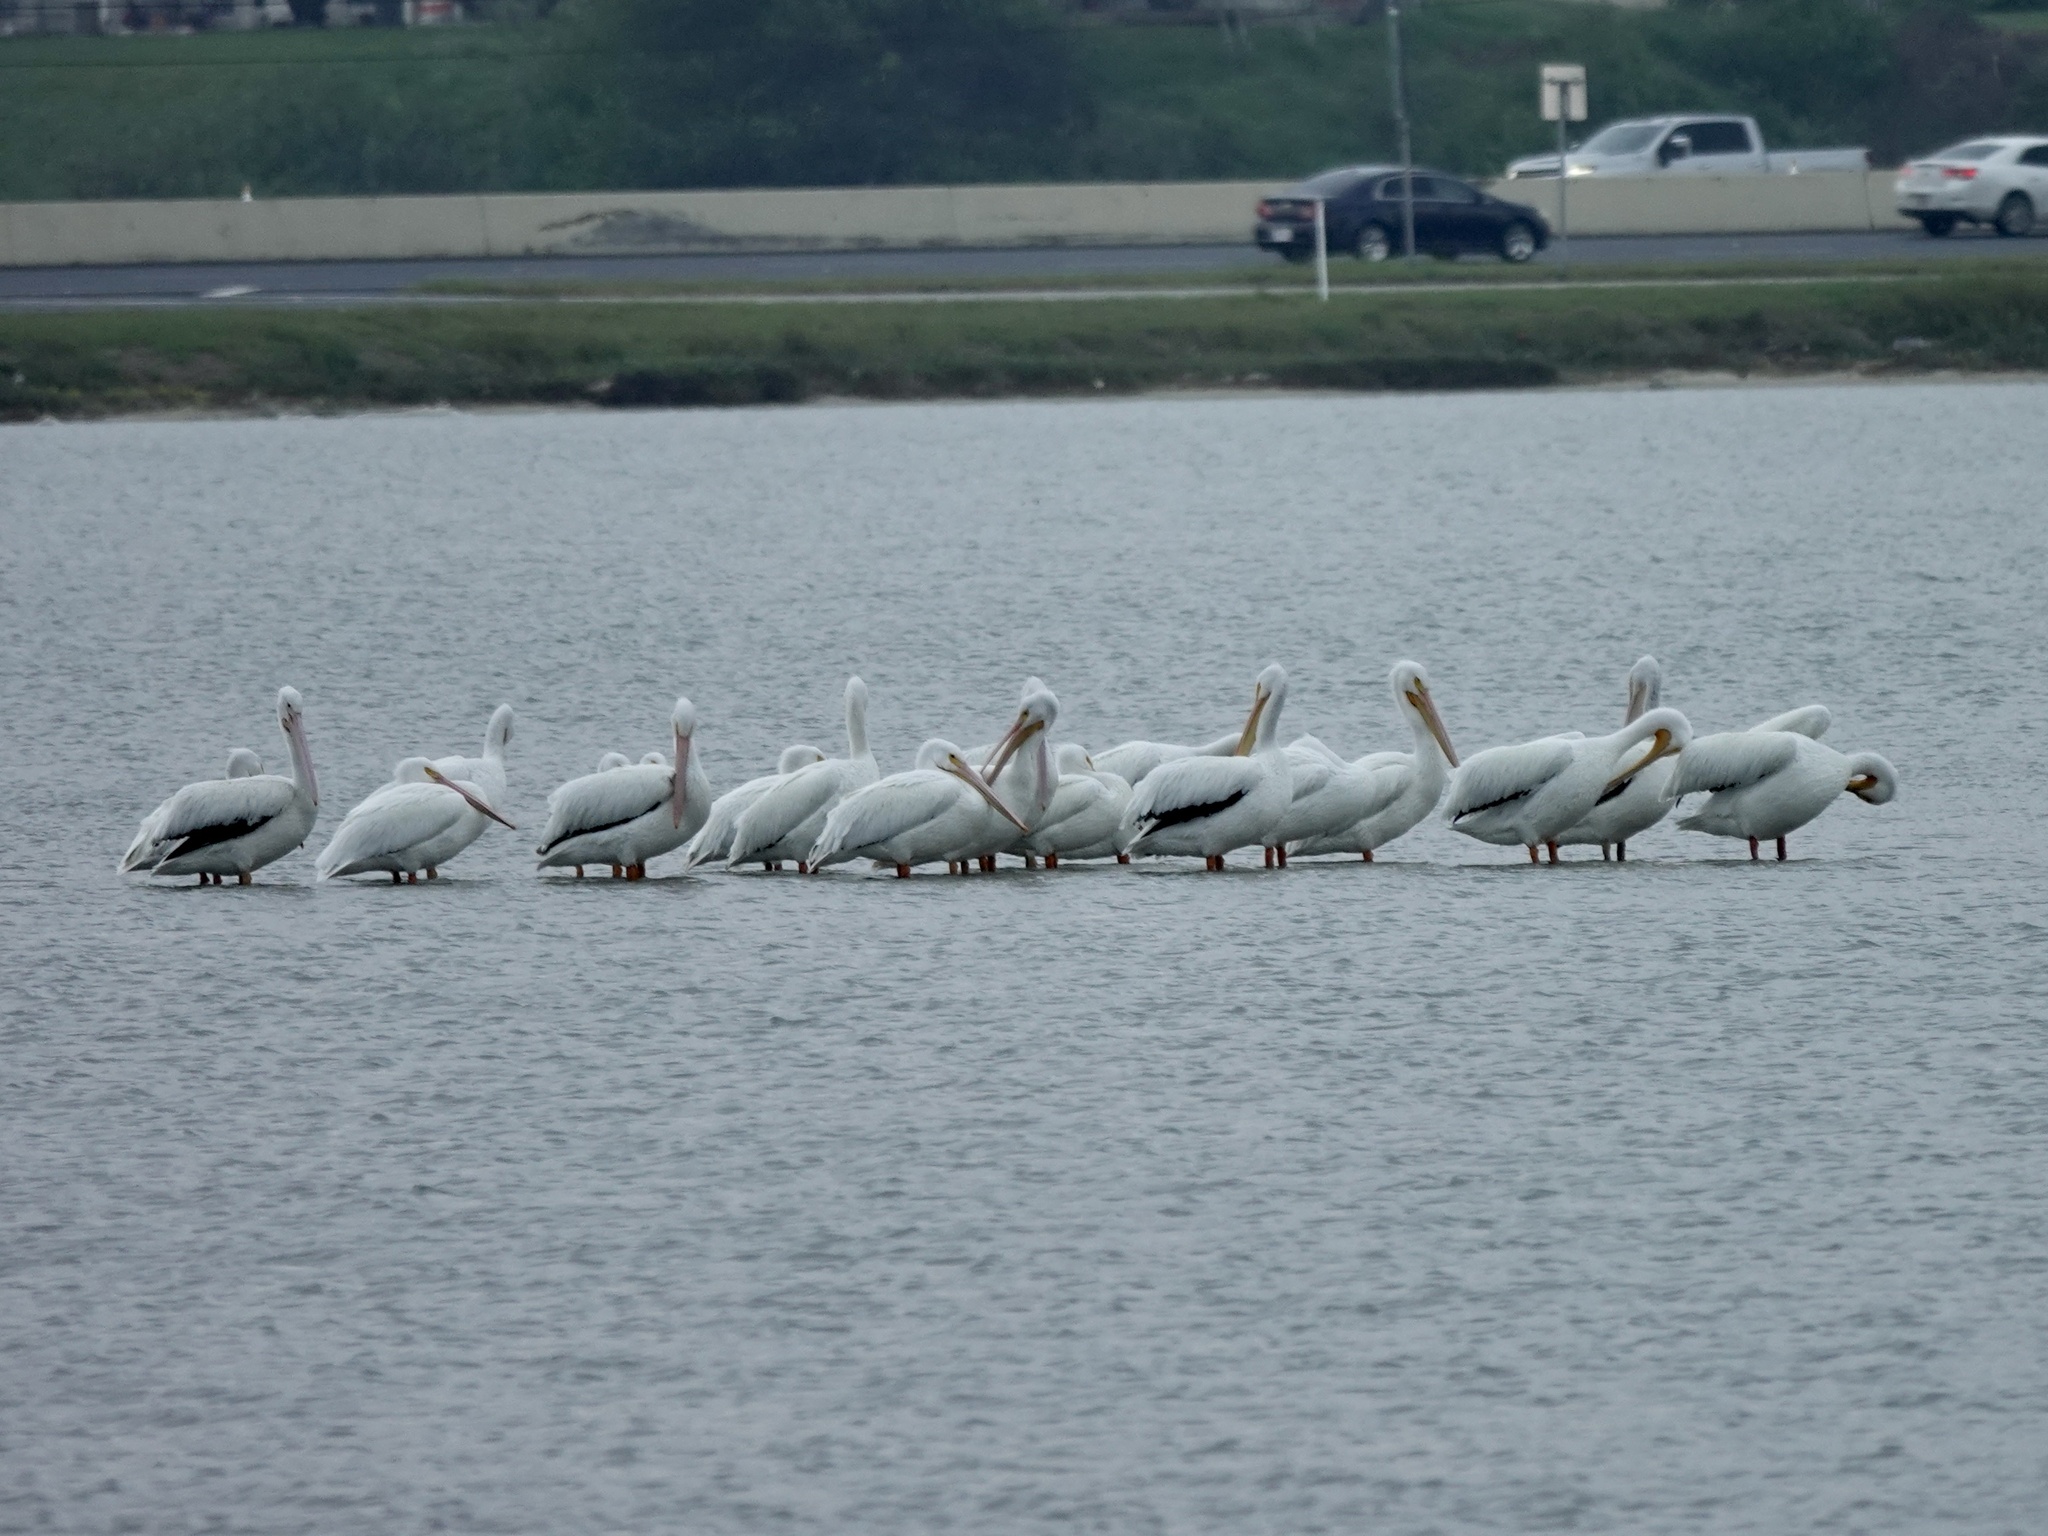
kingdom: Animalia
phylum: Chordata
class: Aves
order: Pelecaniformes
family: Pelecanidae
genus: Pelecanus
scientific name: Pelecanus erythrorhynchos
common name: American white pelican
